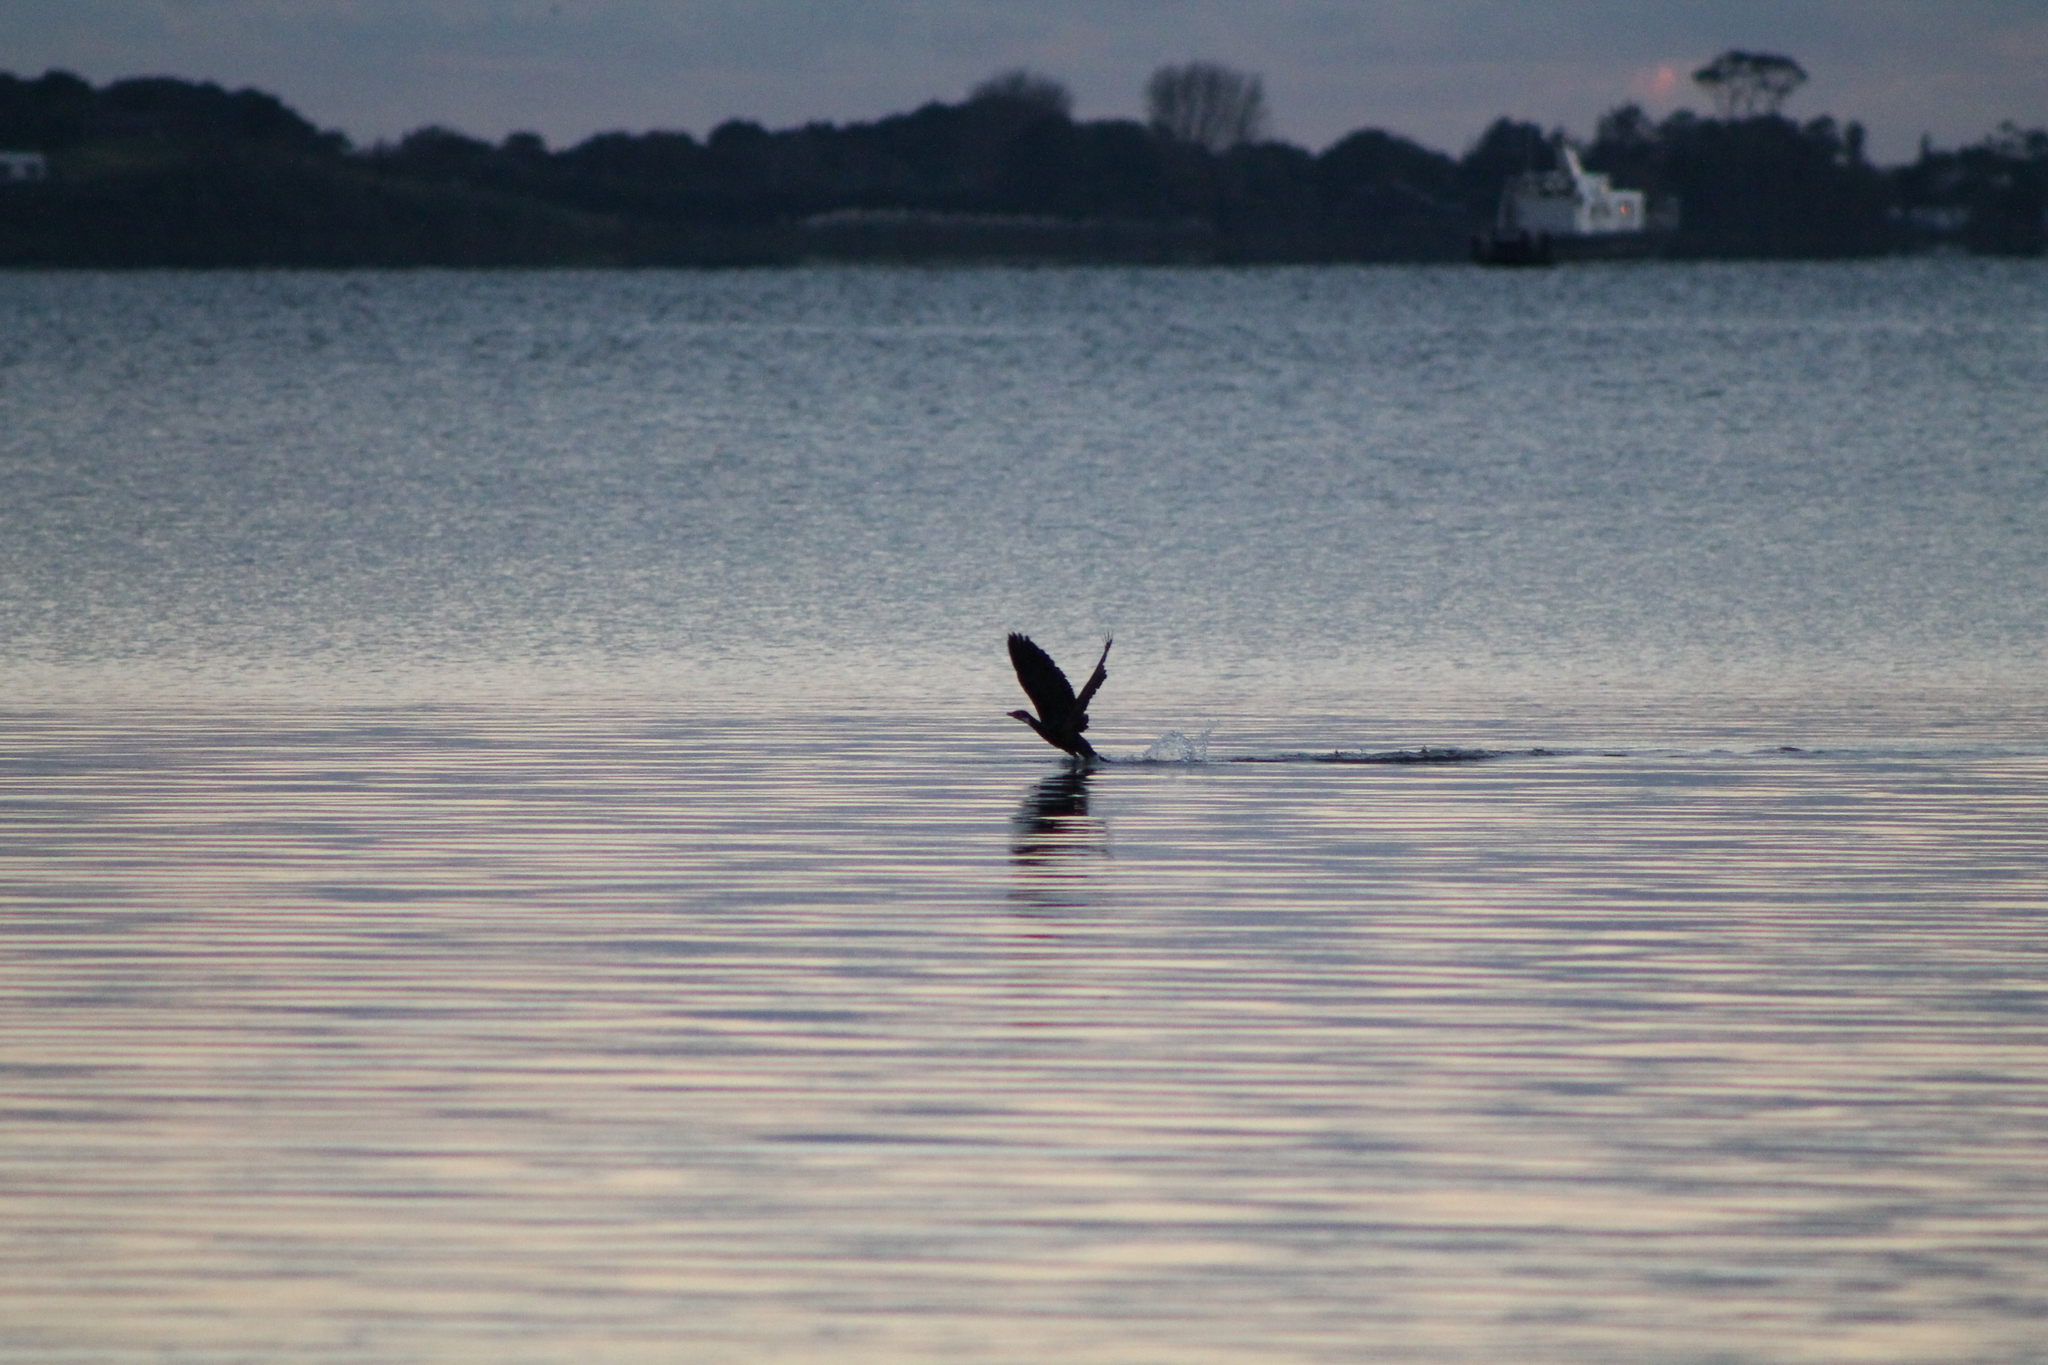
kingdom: Animalia
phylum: Chordata
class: Aves
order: Suliformes
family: Phalacrocoracidae
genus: Microcarbo
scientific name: Microcarbo melanoleucos
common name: Little pied cormorant
